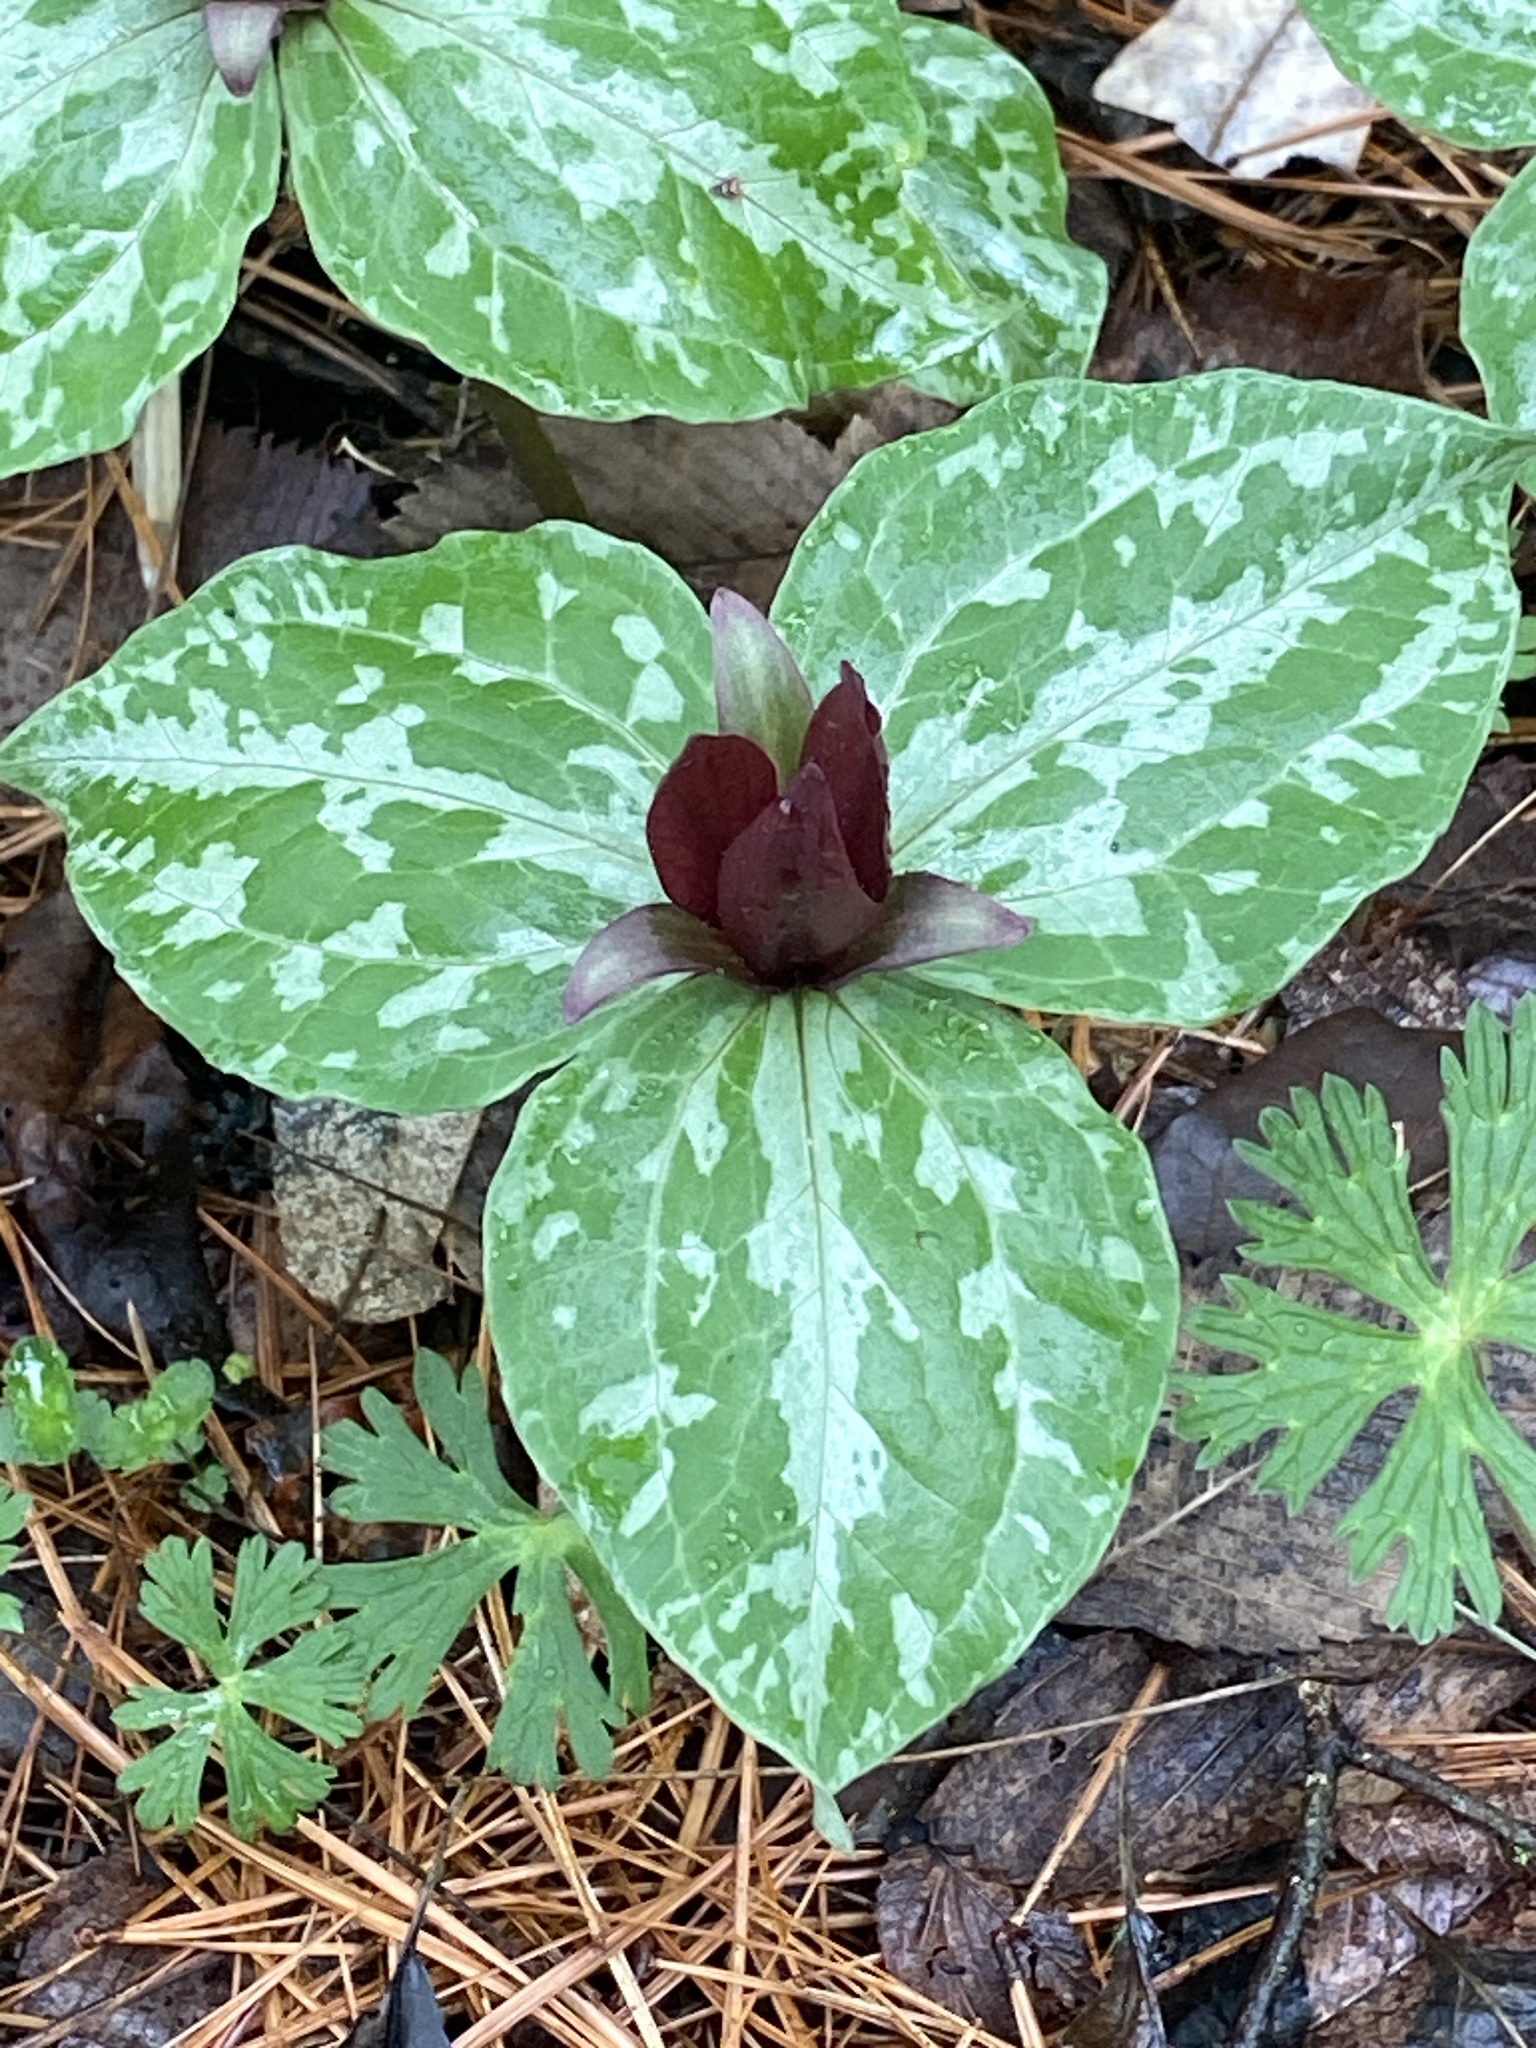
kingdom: Plantae
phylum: Tracheophyta
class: Liliopsida
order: Liliales
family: Melanthiaceae
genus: Trillium
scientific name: Trillium cuneatum
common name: Cuneate trillium
